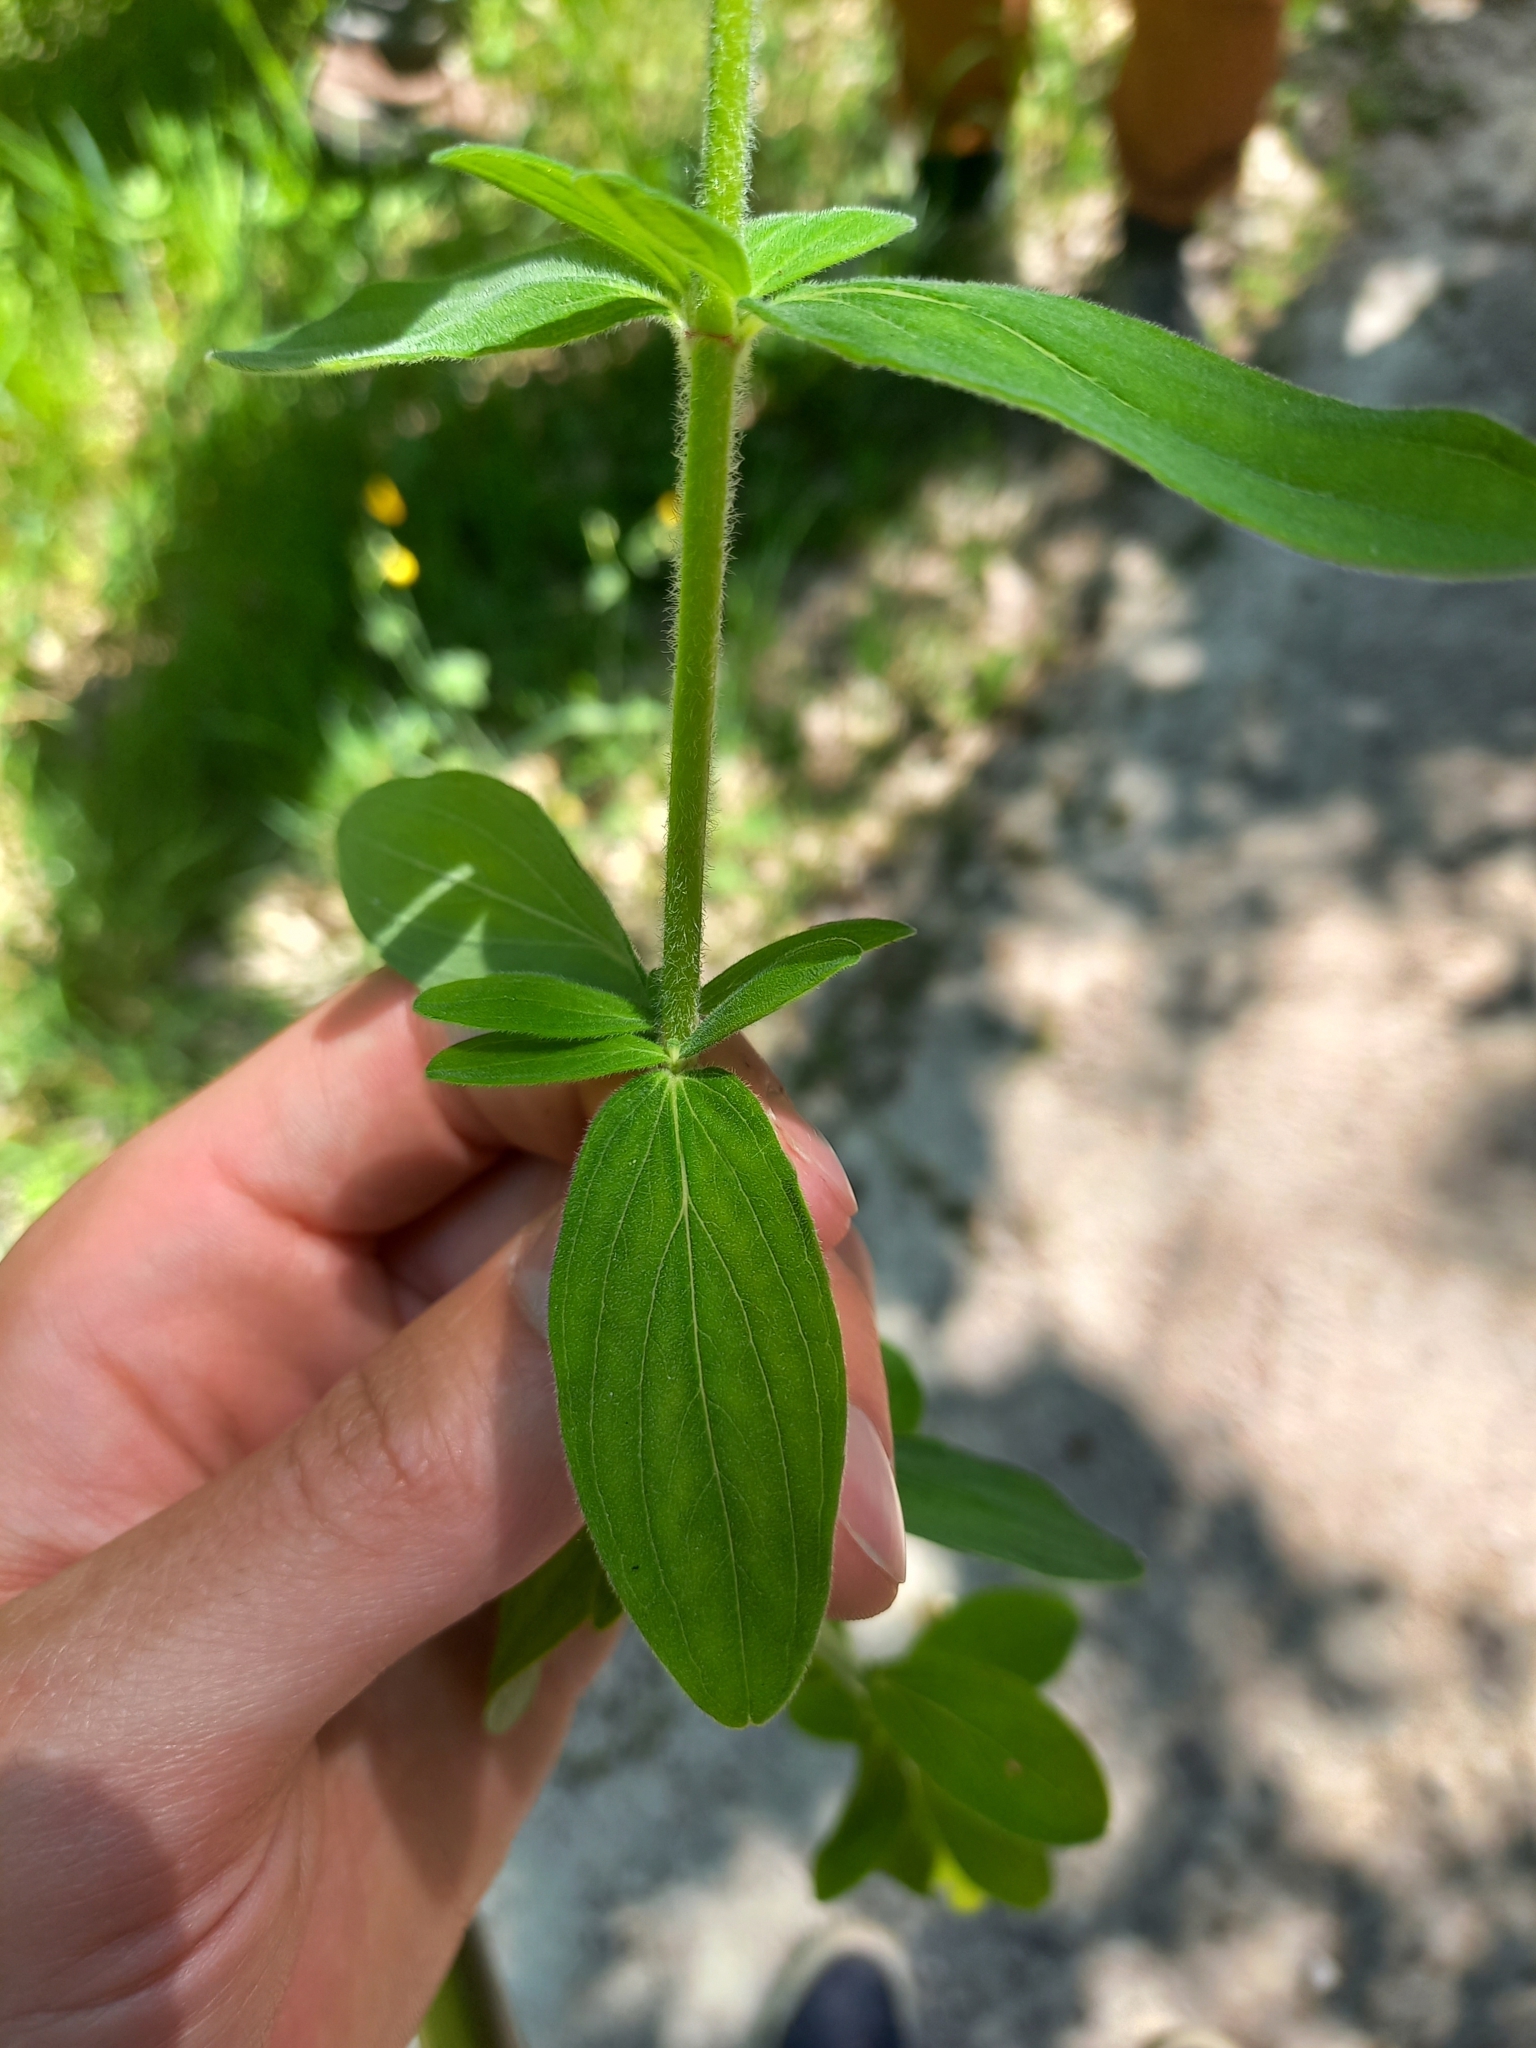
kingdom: Plantae
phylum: Tracheophyta
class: Magnoliopsida
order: Malpighiales
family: Hypericaceae
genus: Hypericum
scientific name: Hypericum hirsutum
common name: Hairy st. john's-wort
